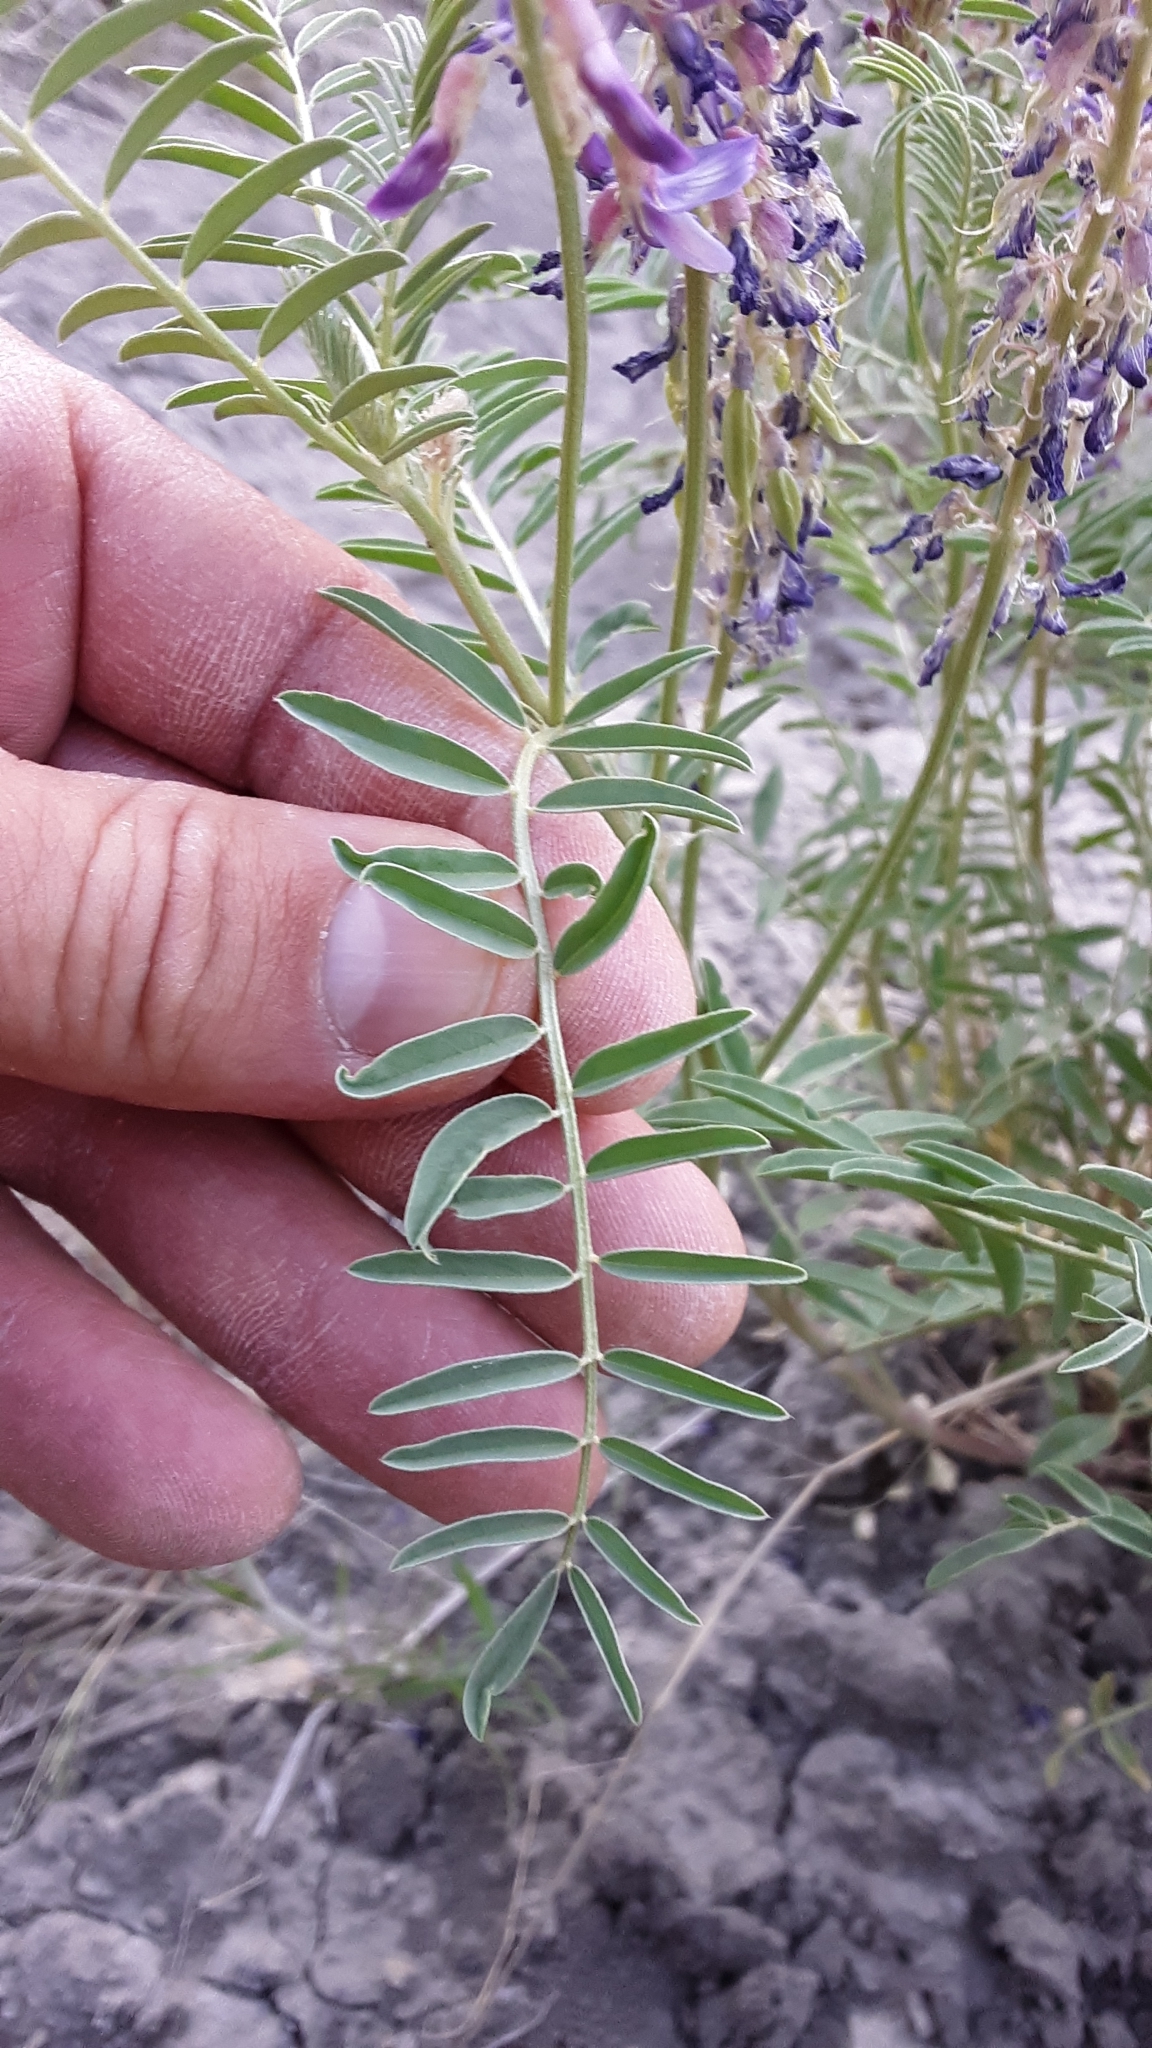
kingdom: Plantae
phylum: Tracheophyta
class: Magnoliopsida
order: Fabales
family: Fabaceae
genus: Astragalus
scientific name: Astragalus bisulcatus
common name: Two-groove milk-vetch
